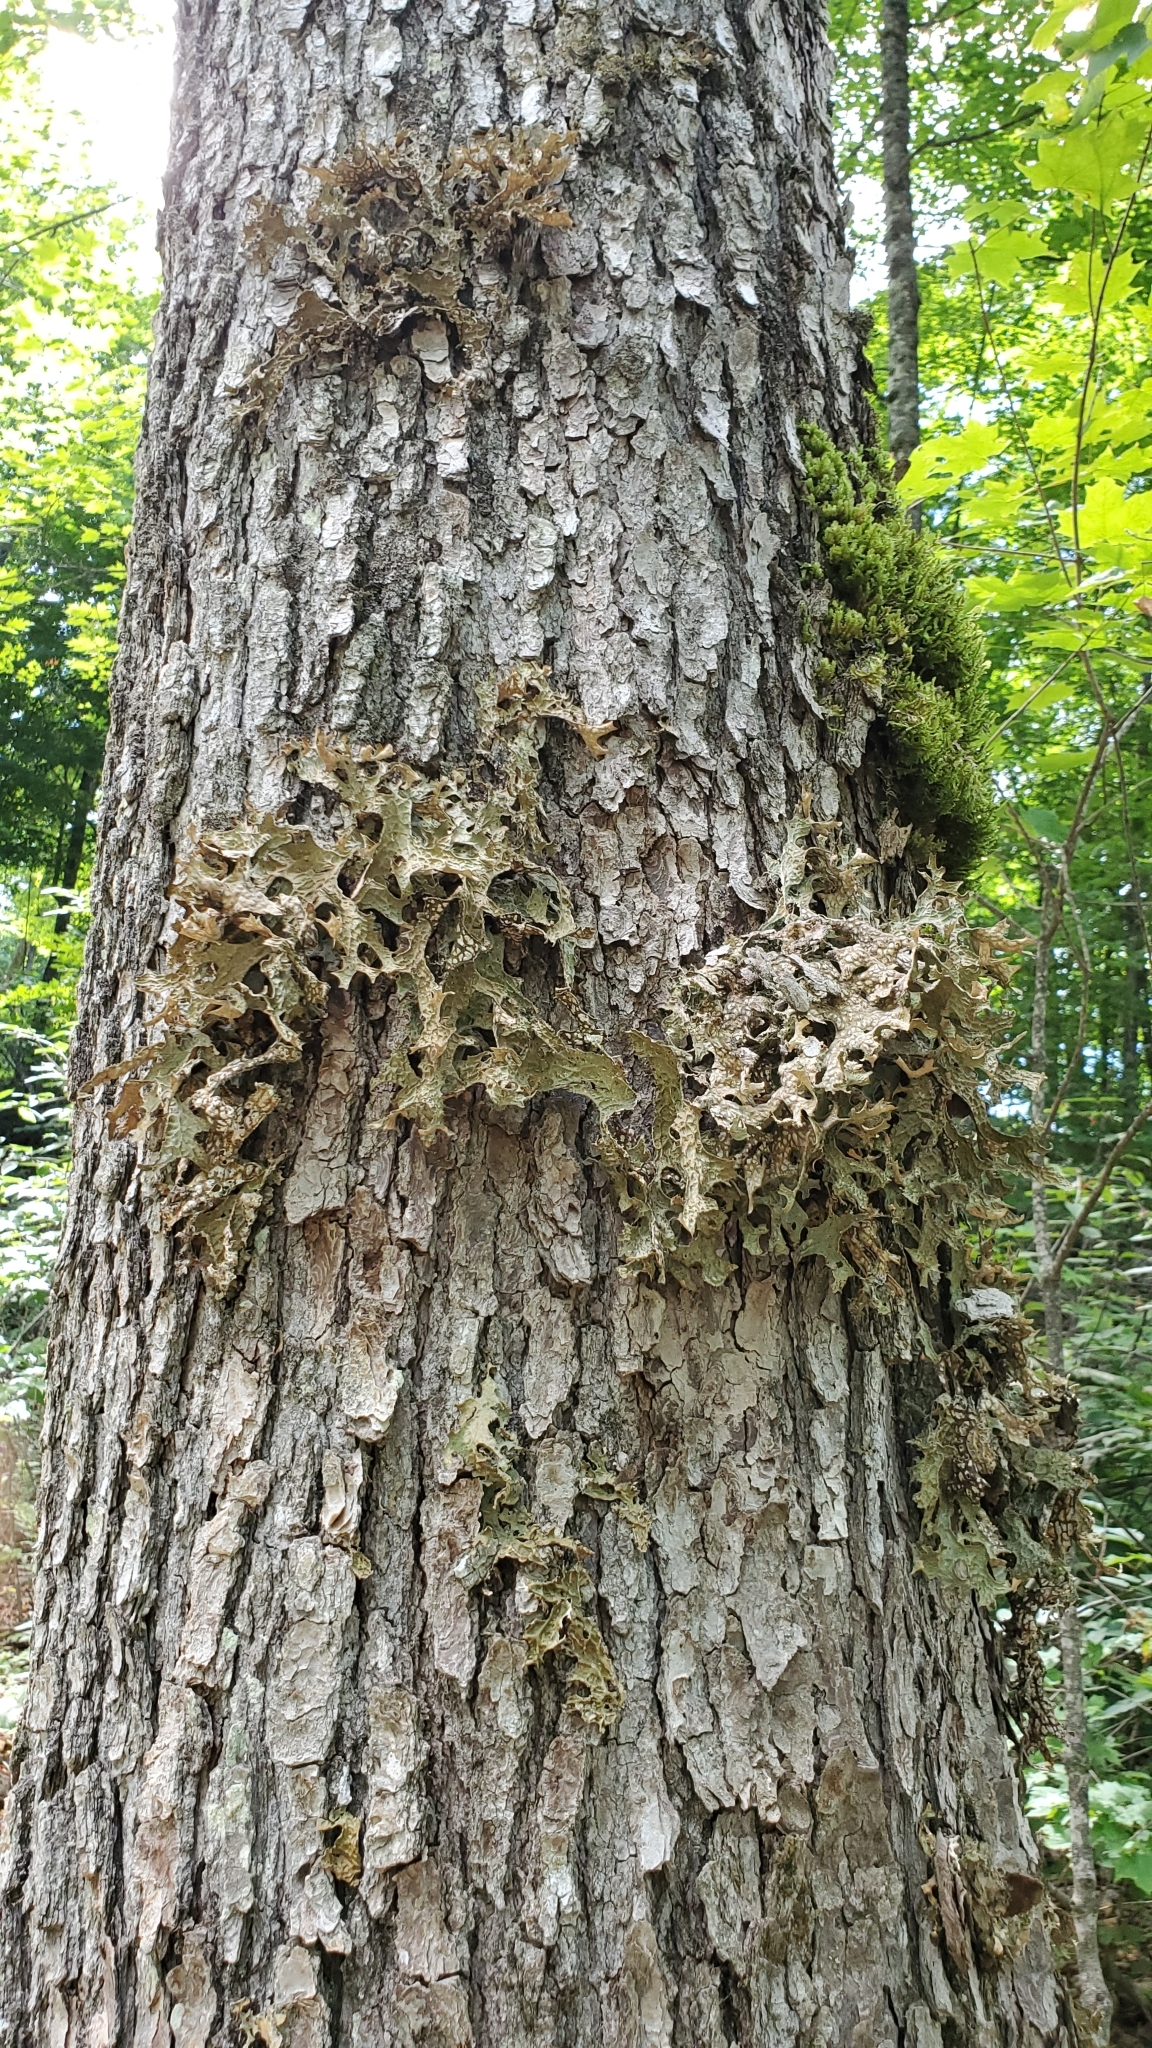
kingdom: Fungi
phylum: Ascomycota
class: Lecanoromycetes
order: Peltigerales
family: Lobariaceae
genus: Lobaria
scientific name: Lobaria pulmonaria
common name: Lungwort
